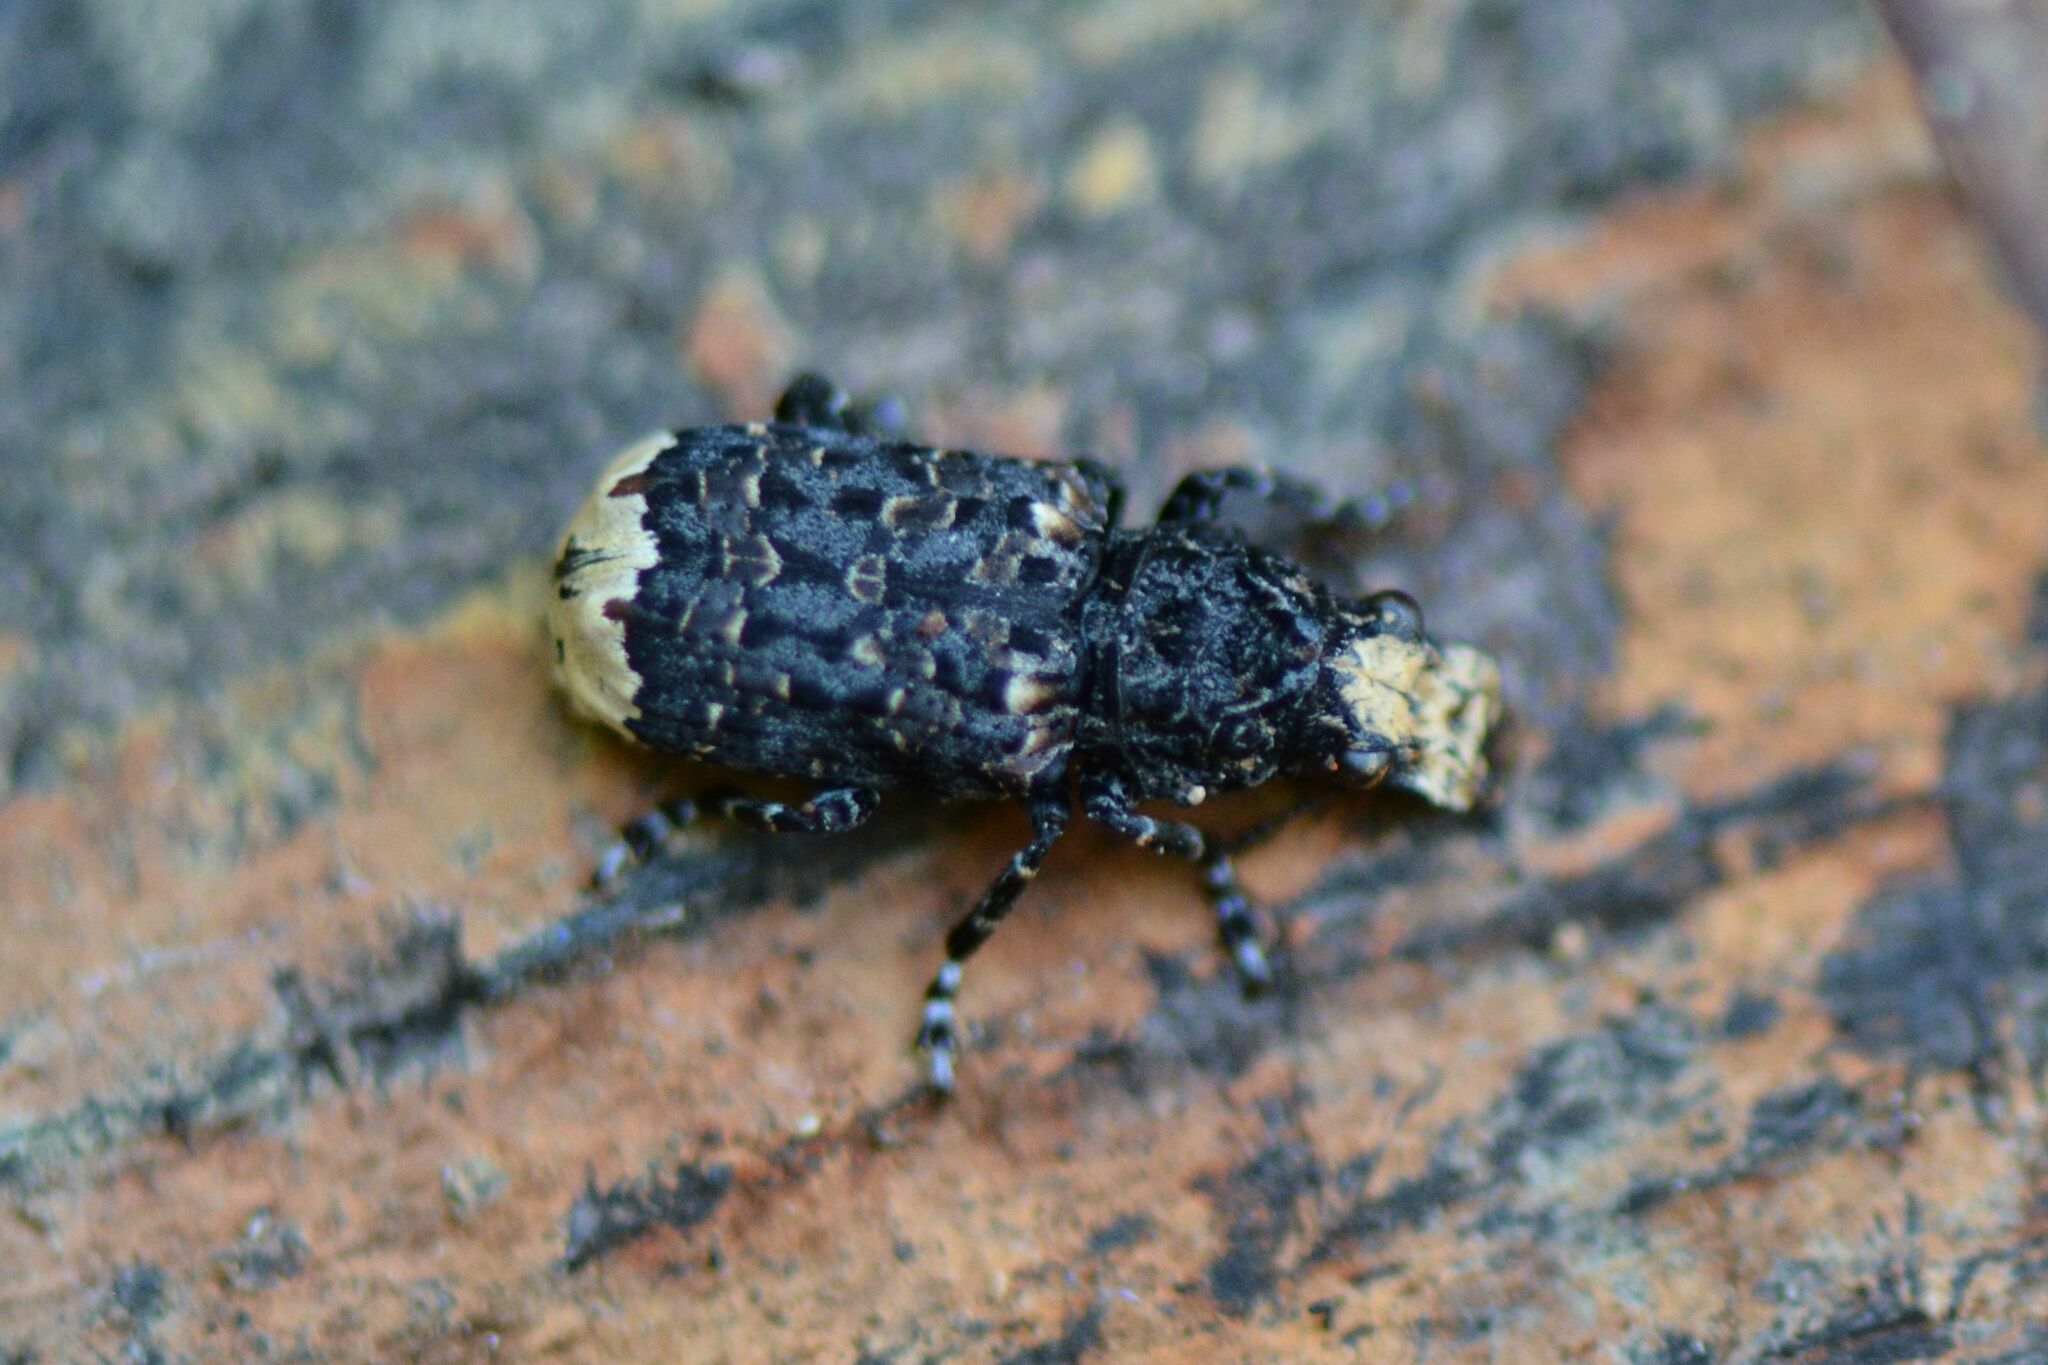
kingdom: Animalia
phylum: Arthropoda
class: Insecta
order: Coleoptera
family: Anthribidae
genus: Platyrhinus
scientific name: Platyrhinus resinosus
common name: Cramp-ball fungus weevil
